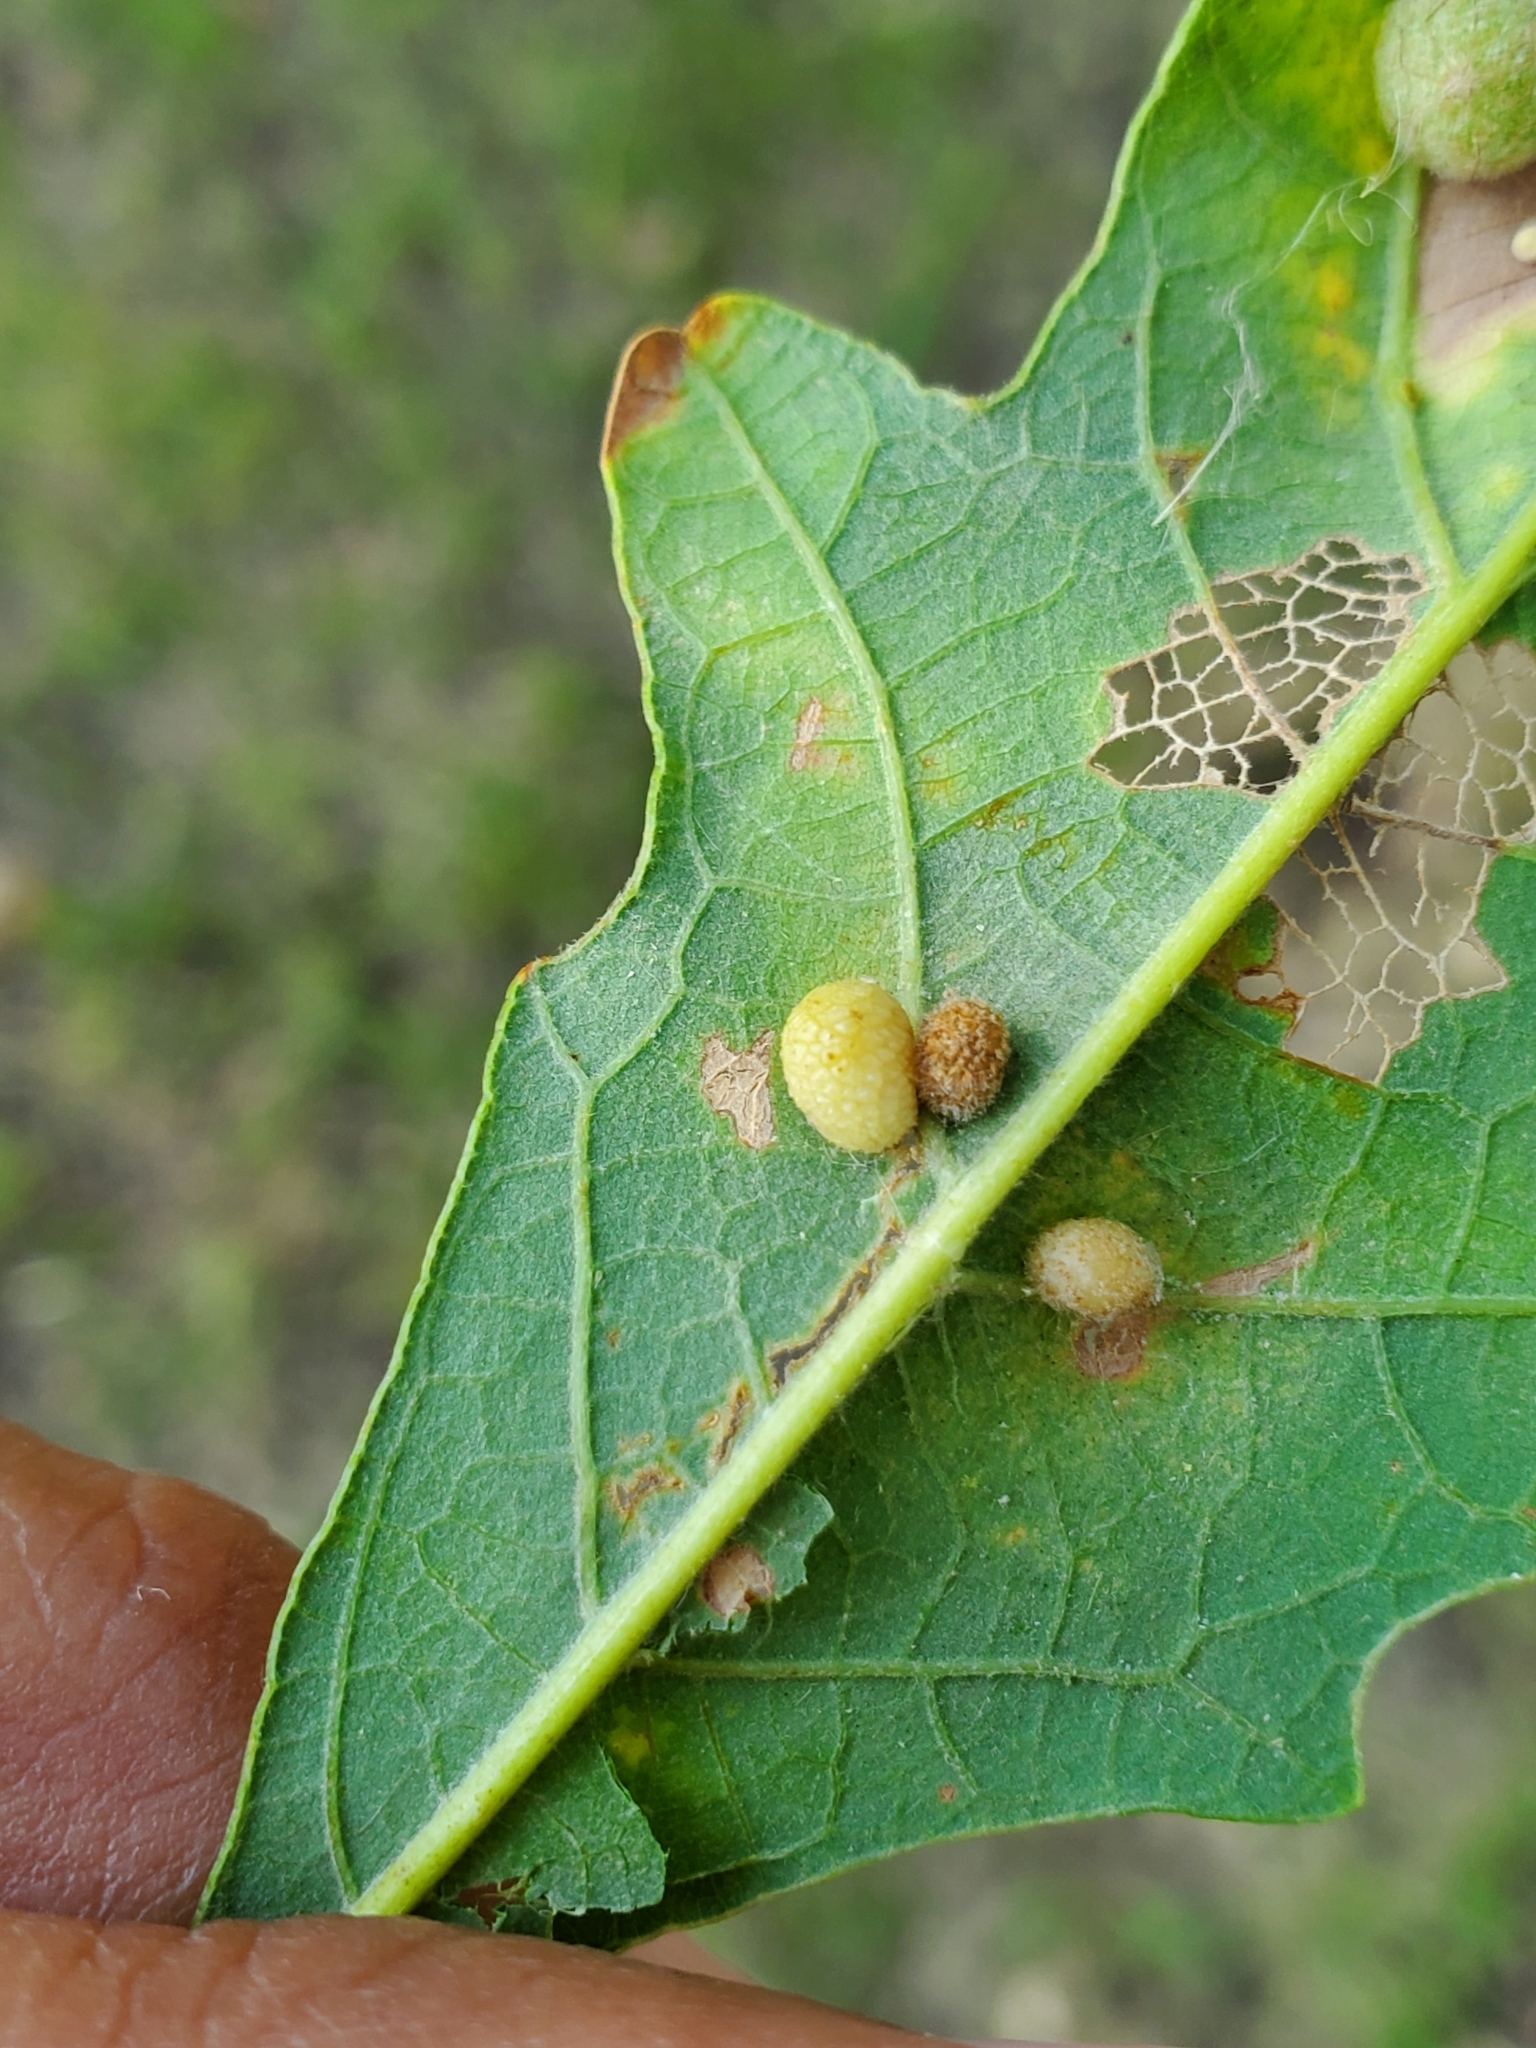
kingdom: Animalia
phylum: Arthropoda
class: Insecta
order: Hymenoptera
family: Cynipidae
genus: Acraspis
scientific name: Acraspis quercushirta
